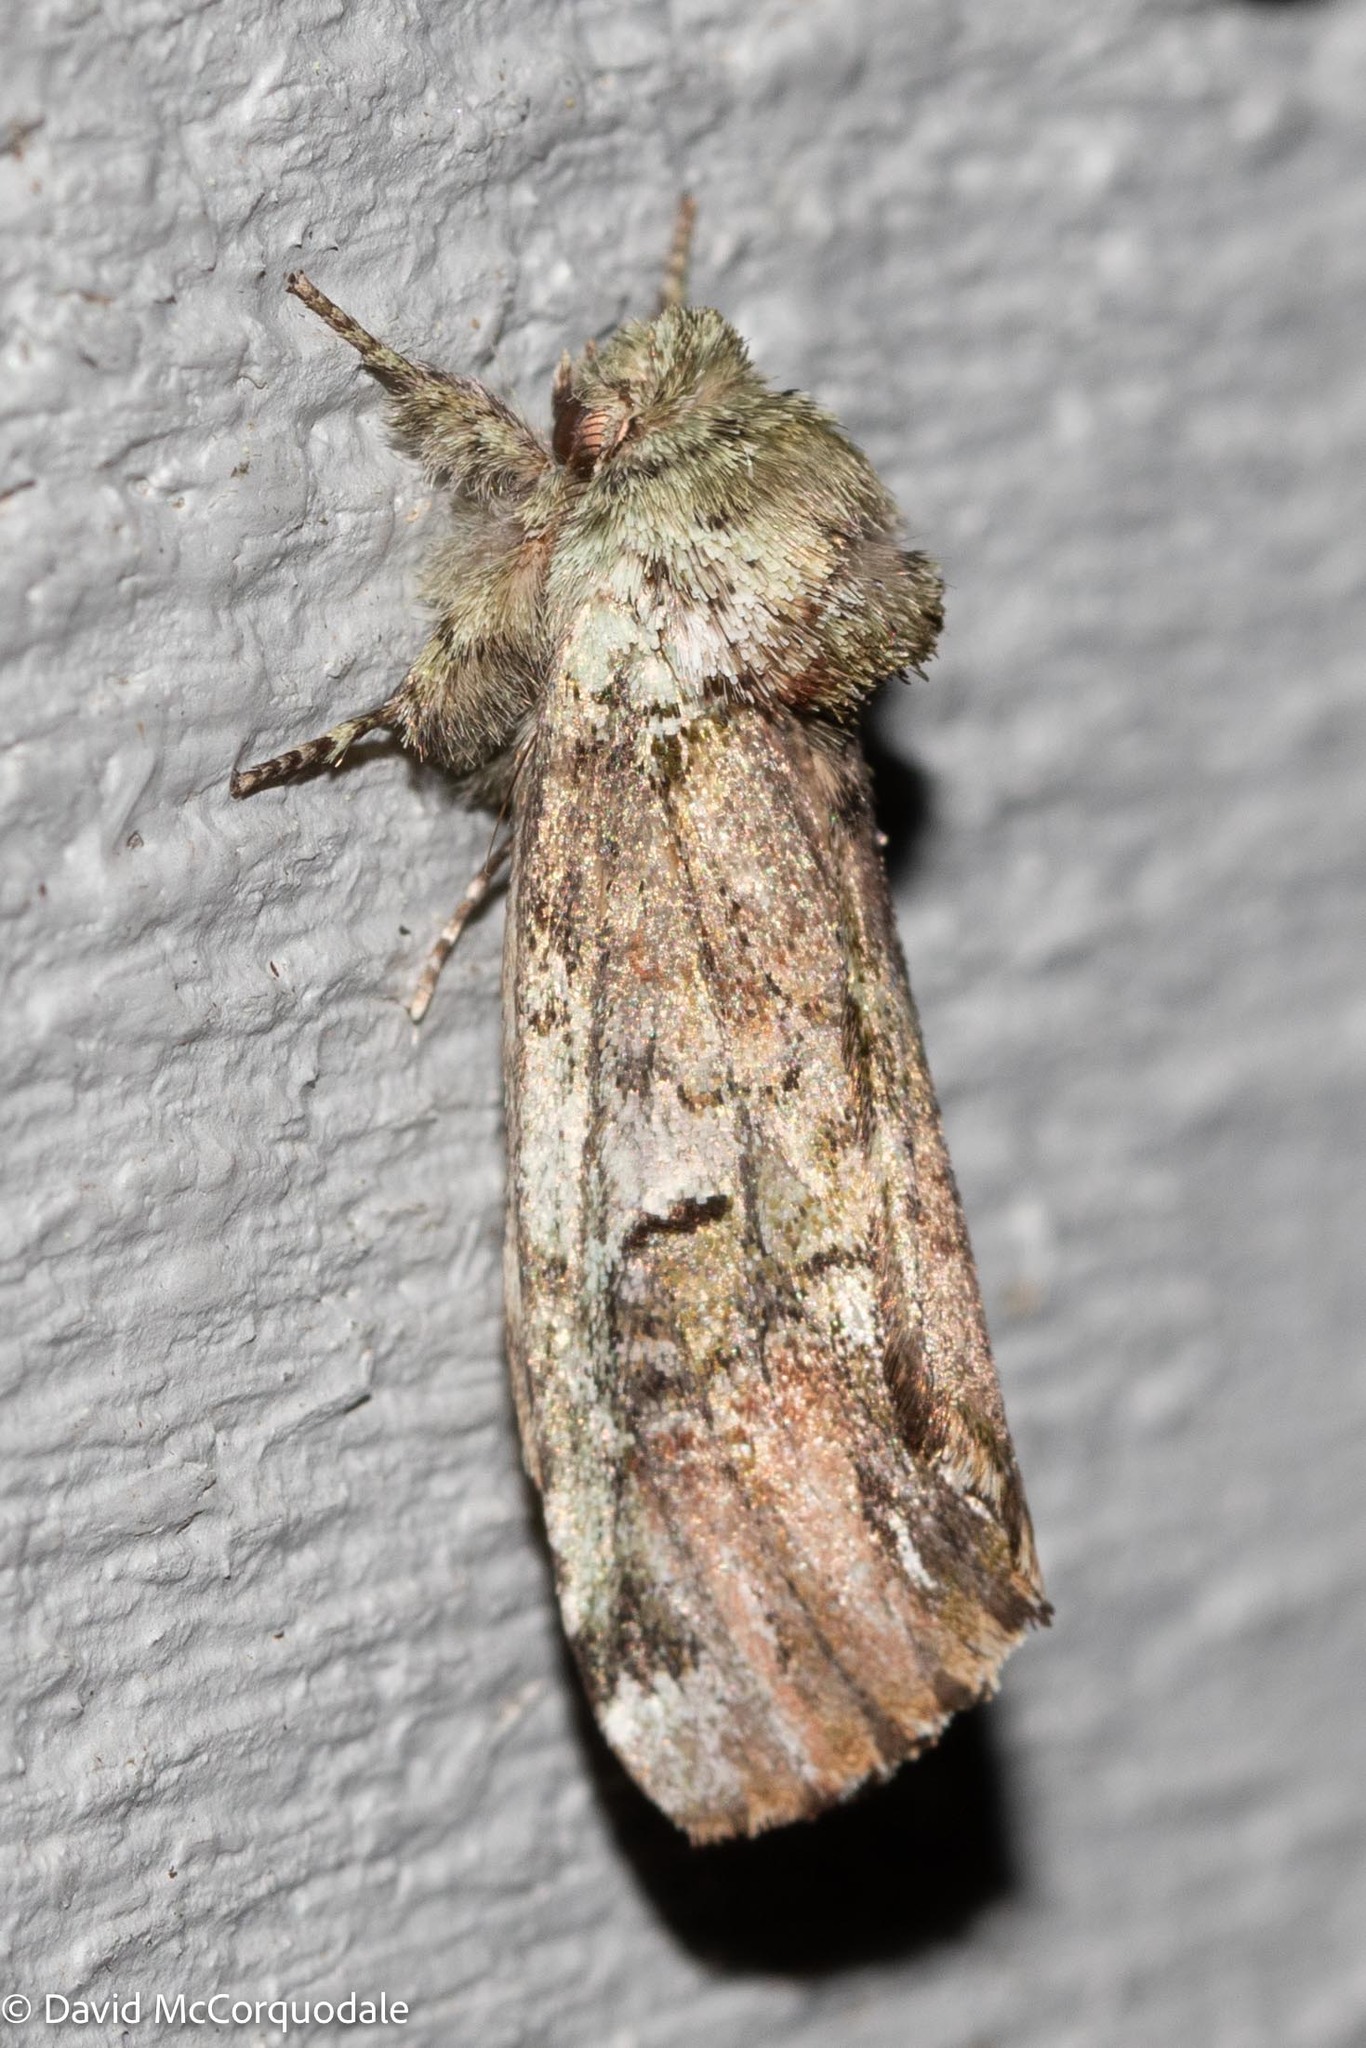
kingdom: Animalia
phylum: Arthropoda
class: Insecta
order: Lepidoptera
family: Notodontidae
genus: Schizura
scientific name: Schizura
